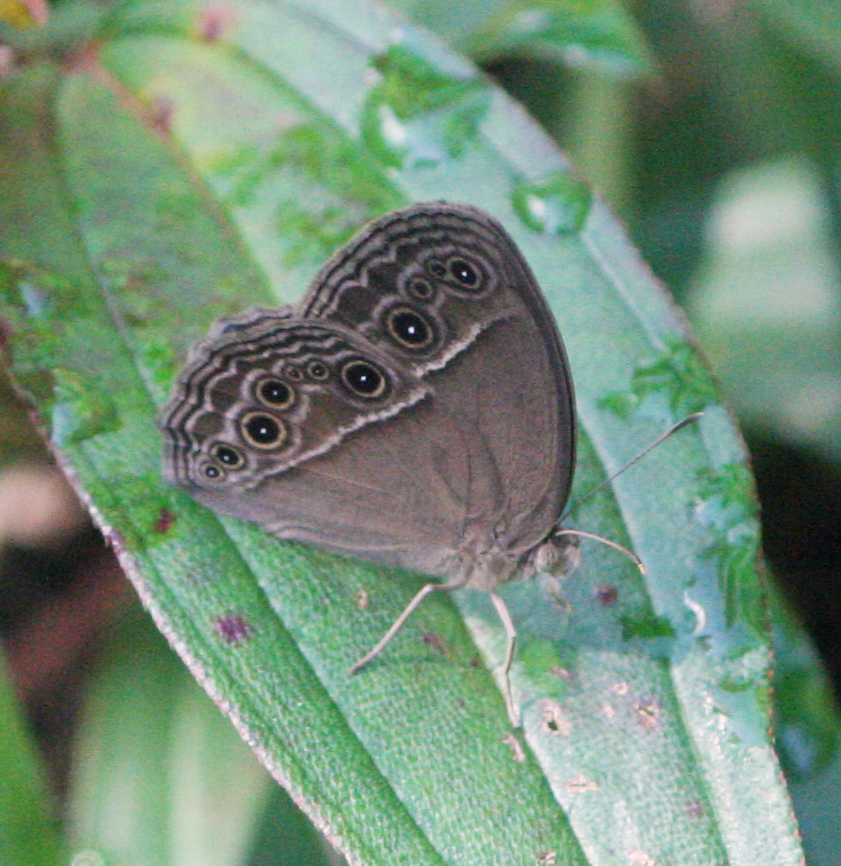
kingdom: Animalia
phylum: Arthropoda
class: Insecta
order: Lepidoptera
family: Nymphalidae
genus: Mycalesis
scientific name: Mycalesis perseus
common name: Dingy bushbrown
